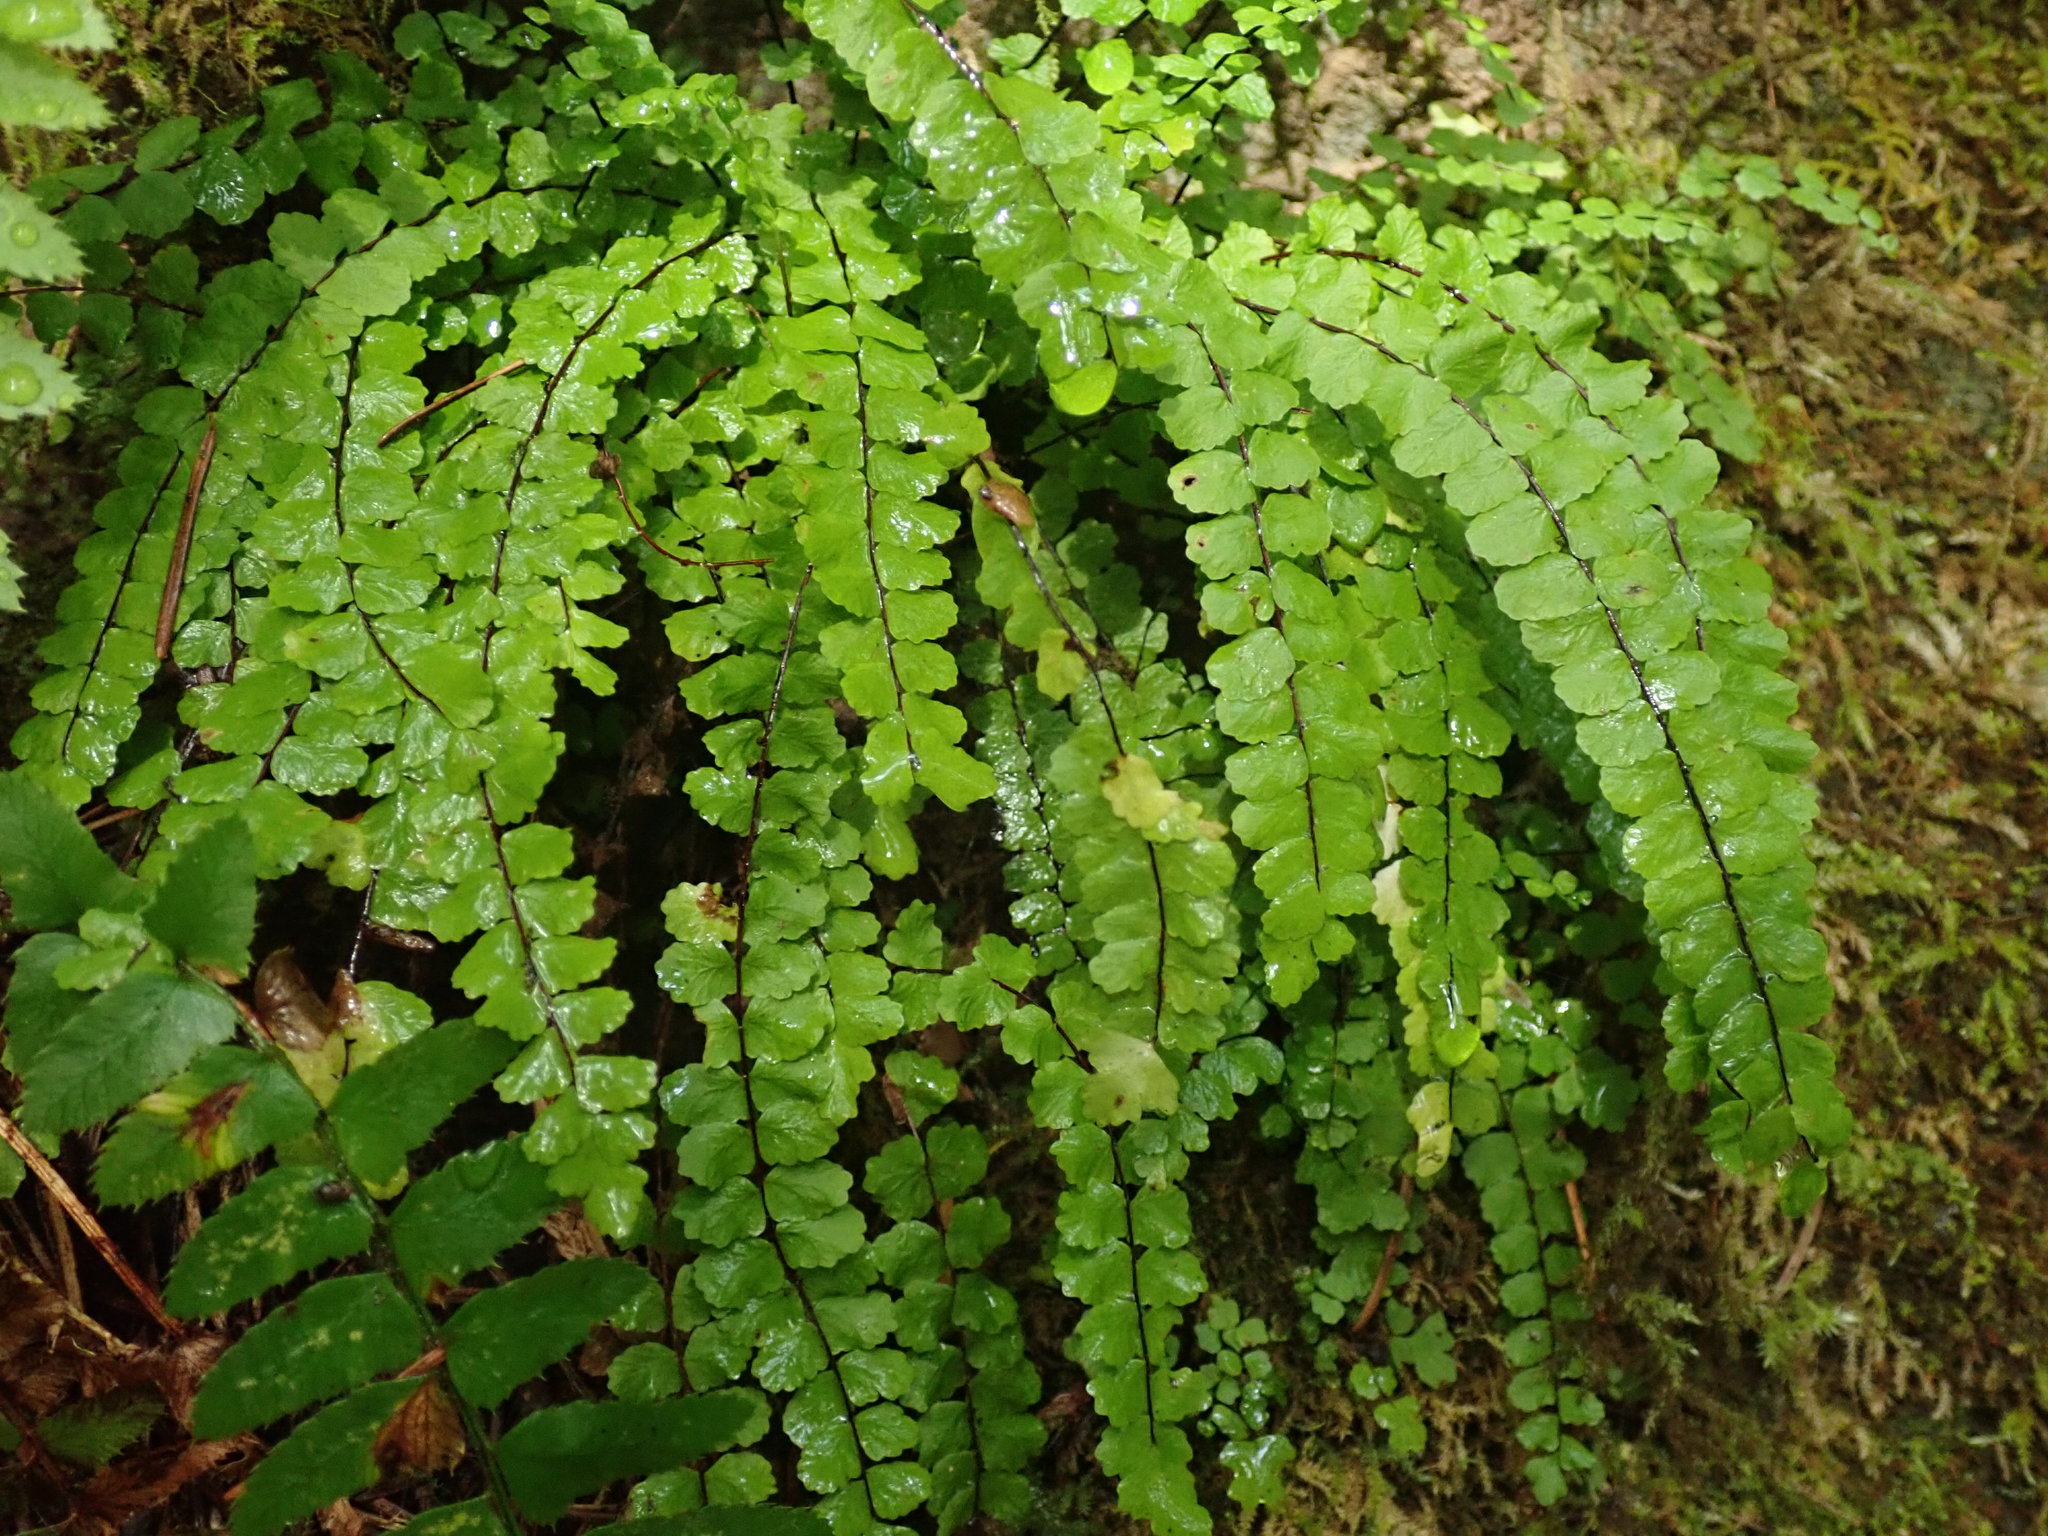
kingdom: Plantae
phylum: Tracheophyta
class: Polypodiopsida
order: Polypodiales
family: Aspleniaceae
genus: Asplenium
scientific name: Asplenium trichomanes
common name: Maidenhair spleenwort
